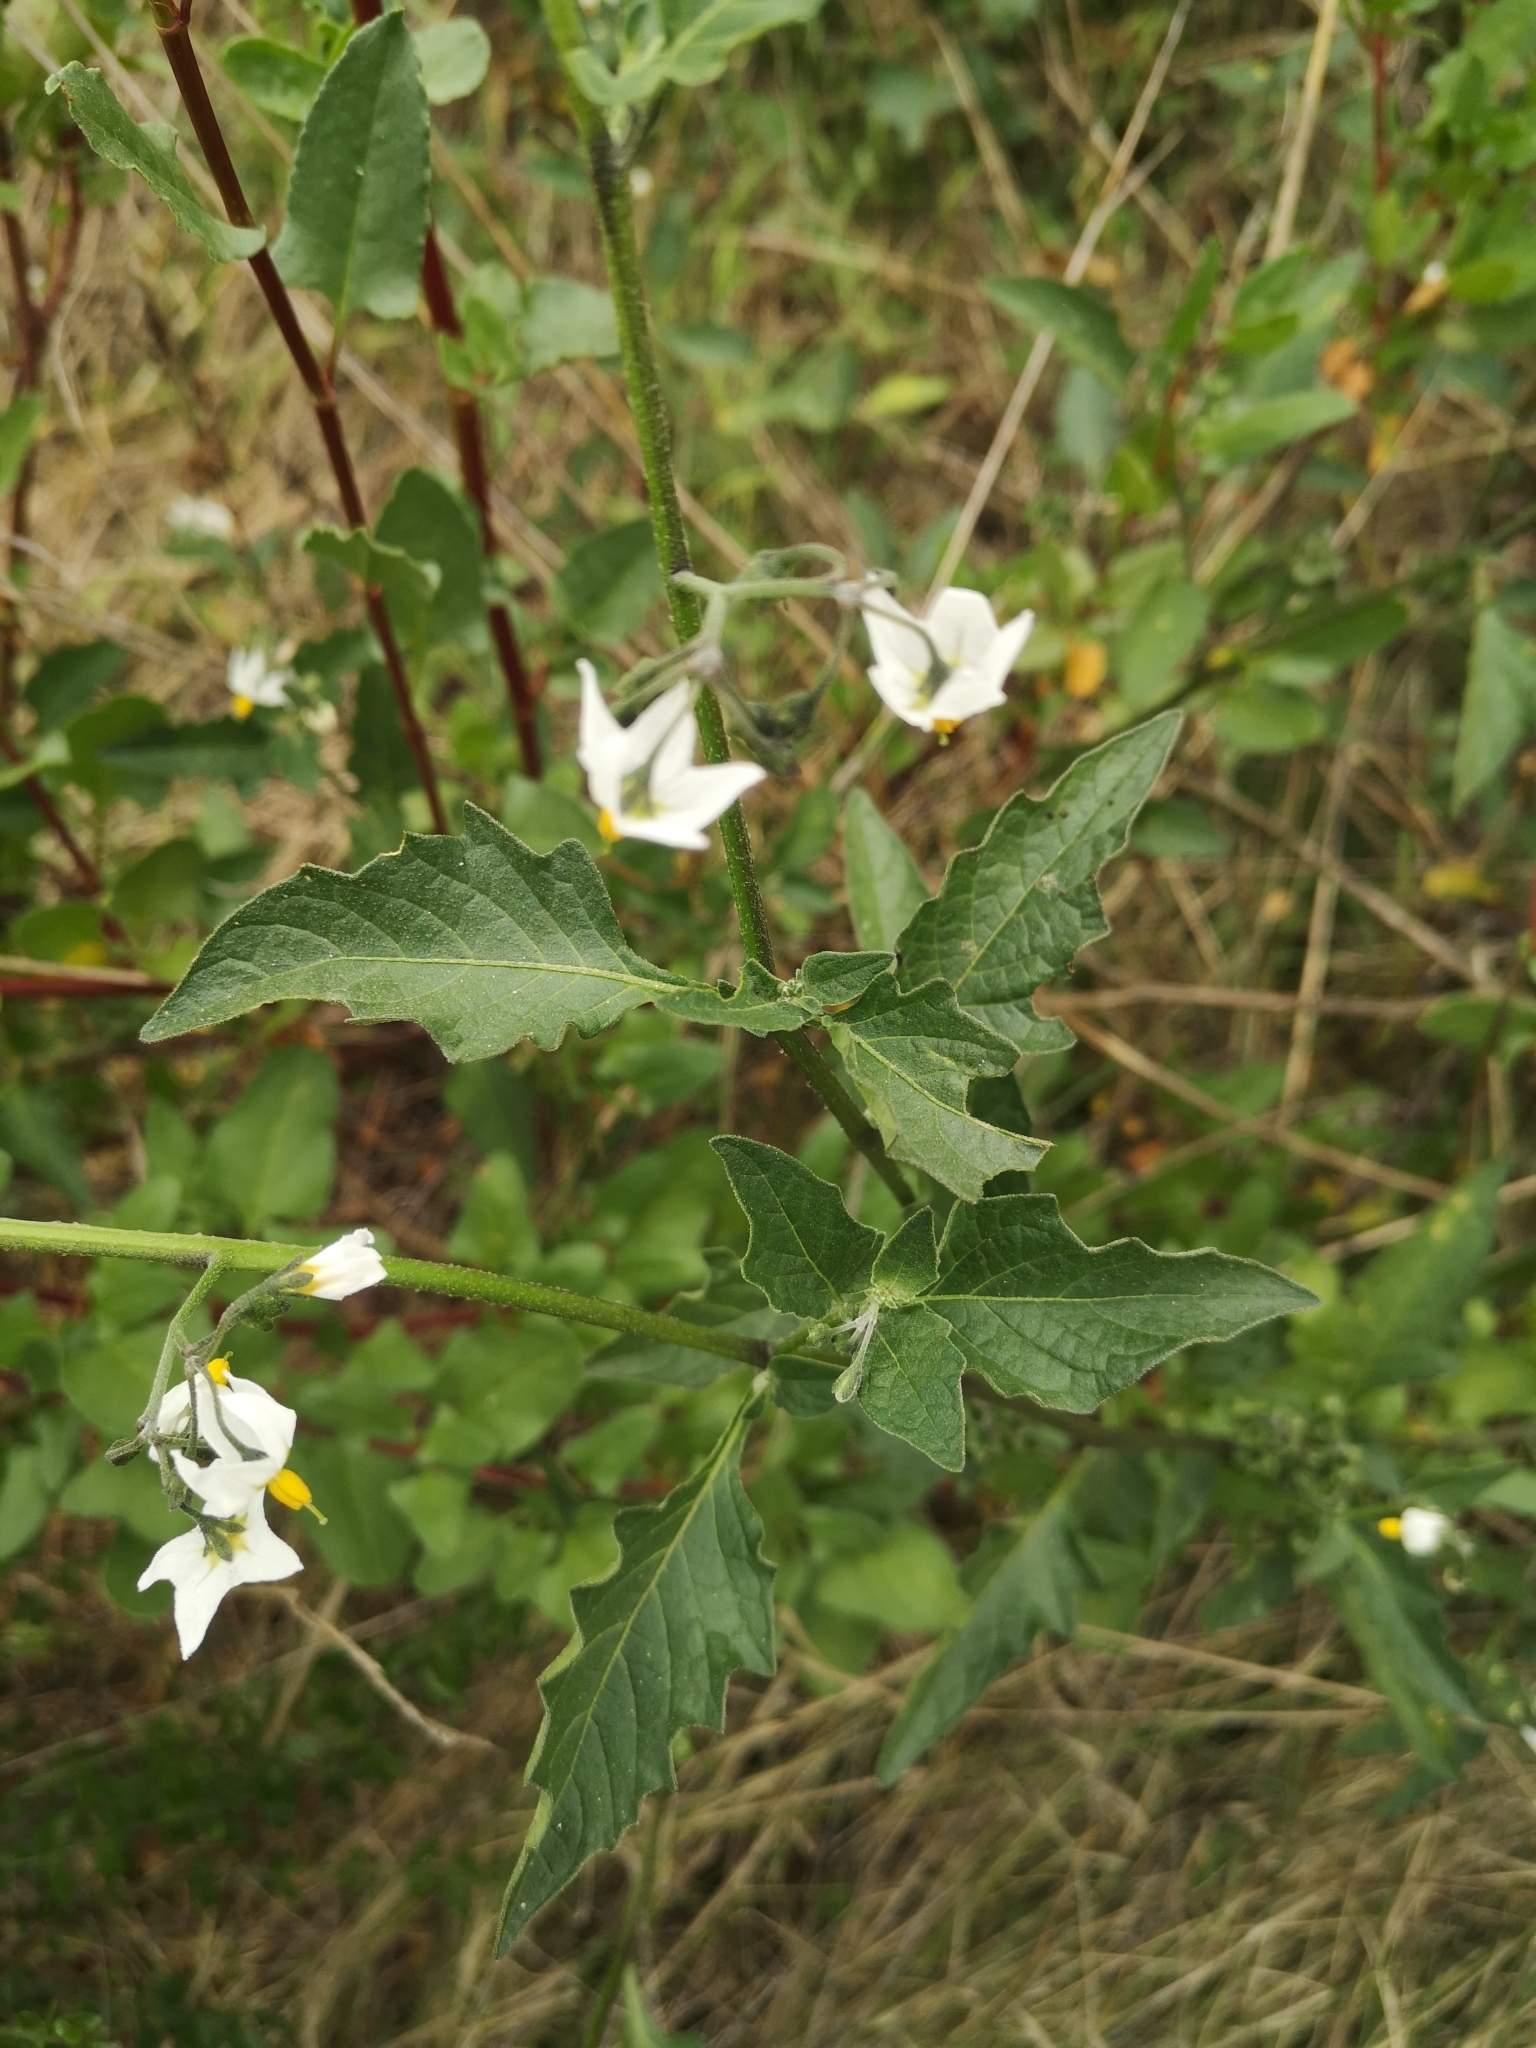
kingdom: Plantae
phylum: Tracheophyta
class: Magnoliopsida
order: Solanales
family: Solanaceae
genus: Solanum
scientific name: Solanum furcatum
